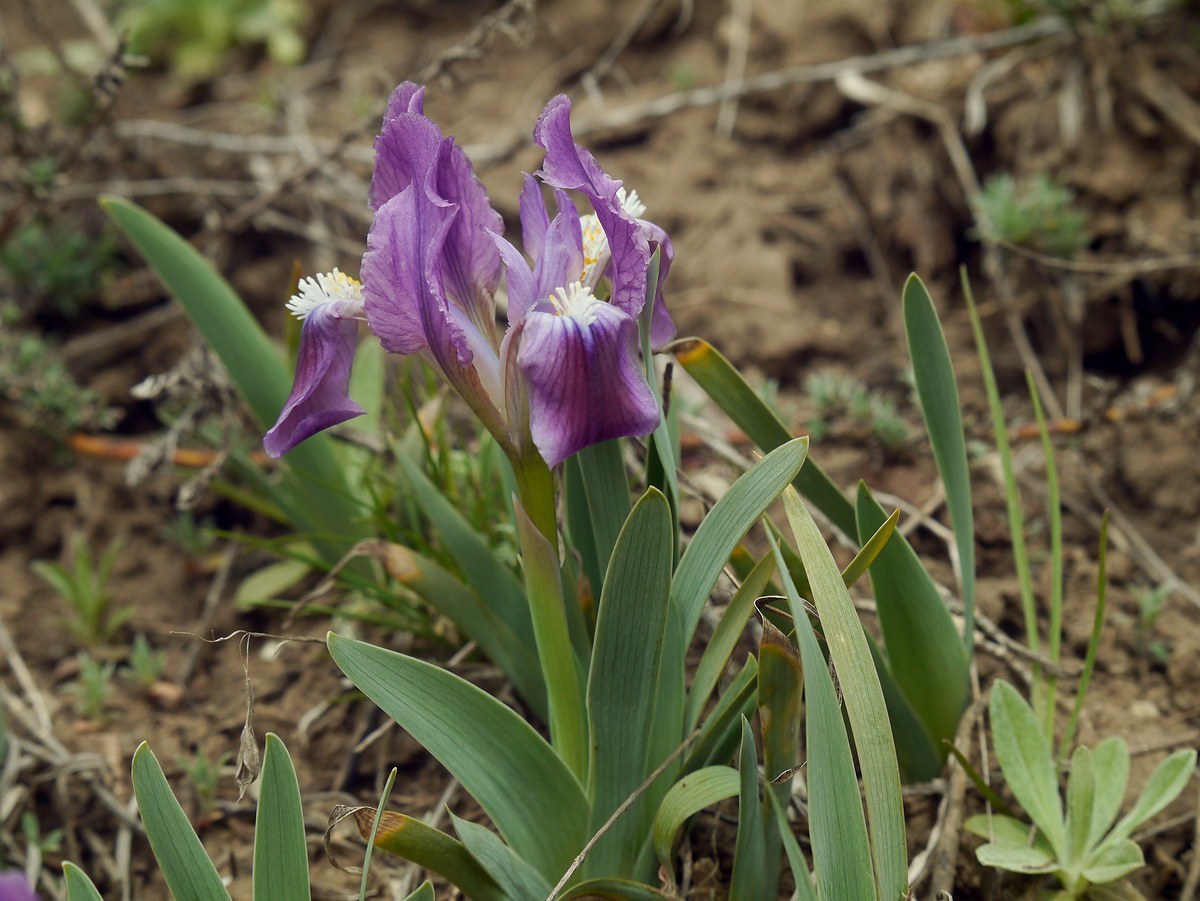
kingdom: Plantae
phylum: Tracheophyta
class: Liliopsida
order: Asparagales
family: Iridaceae
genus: Iris
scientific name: Iris pumila
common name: Dwarf iris
